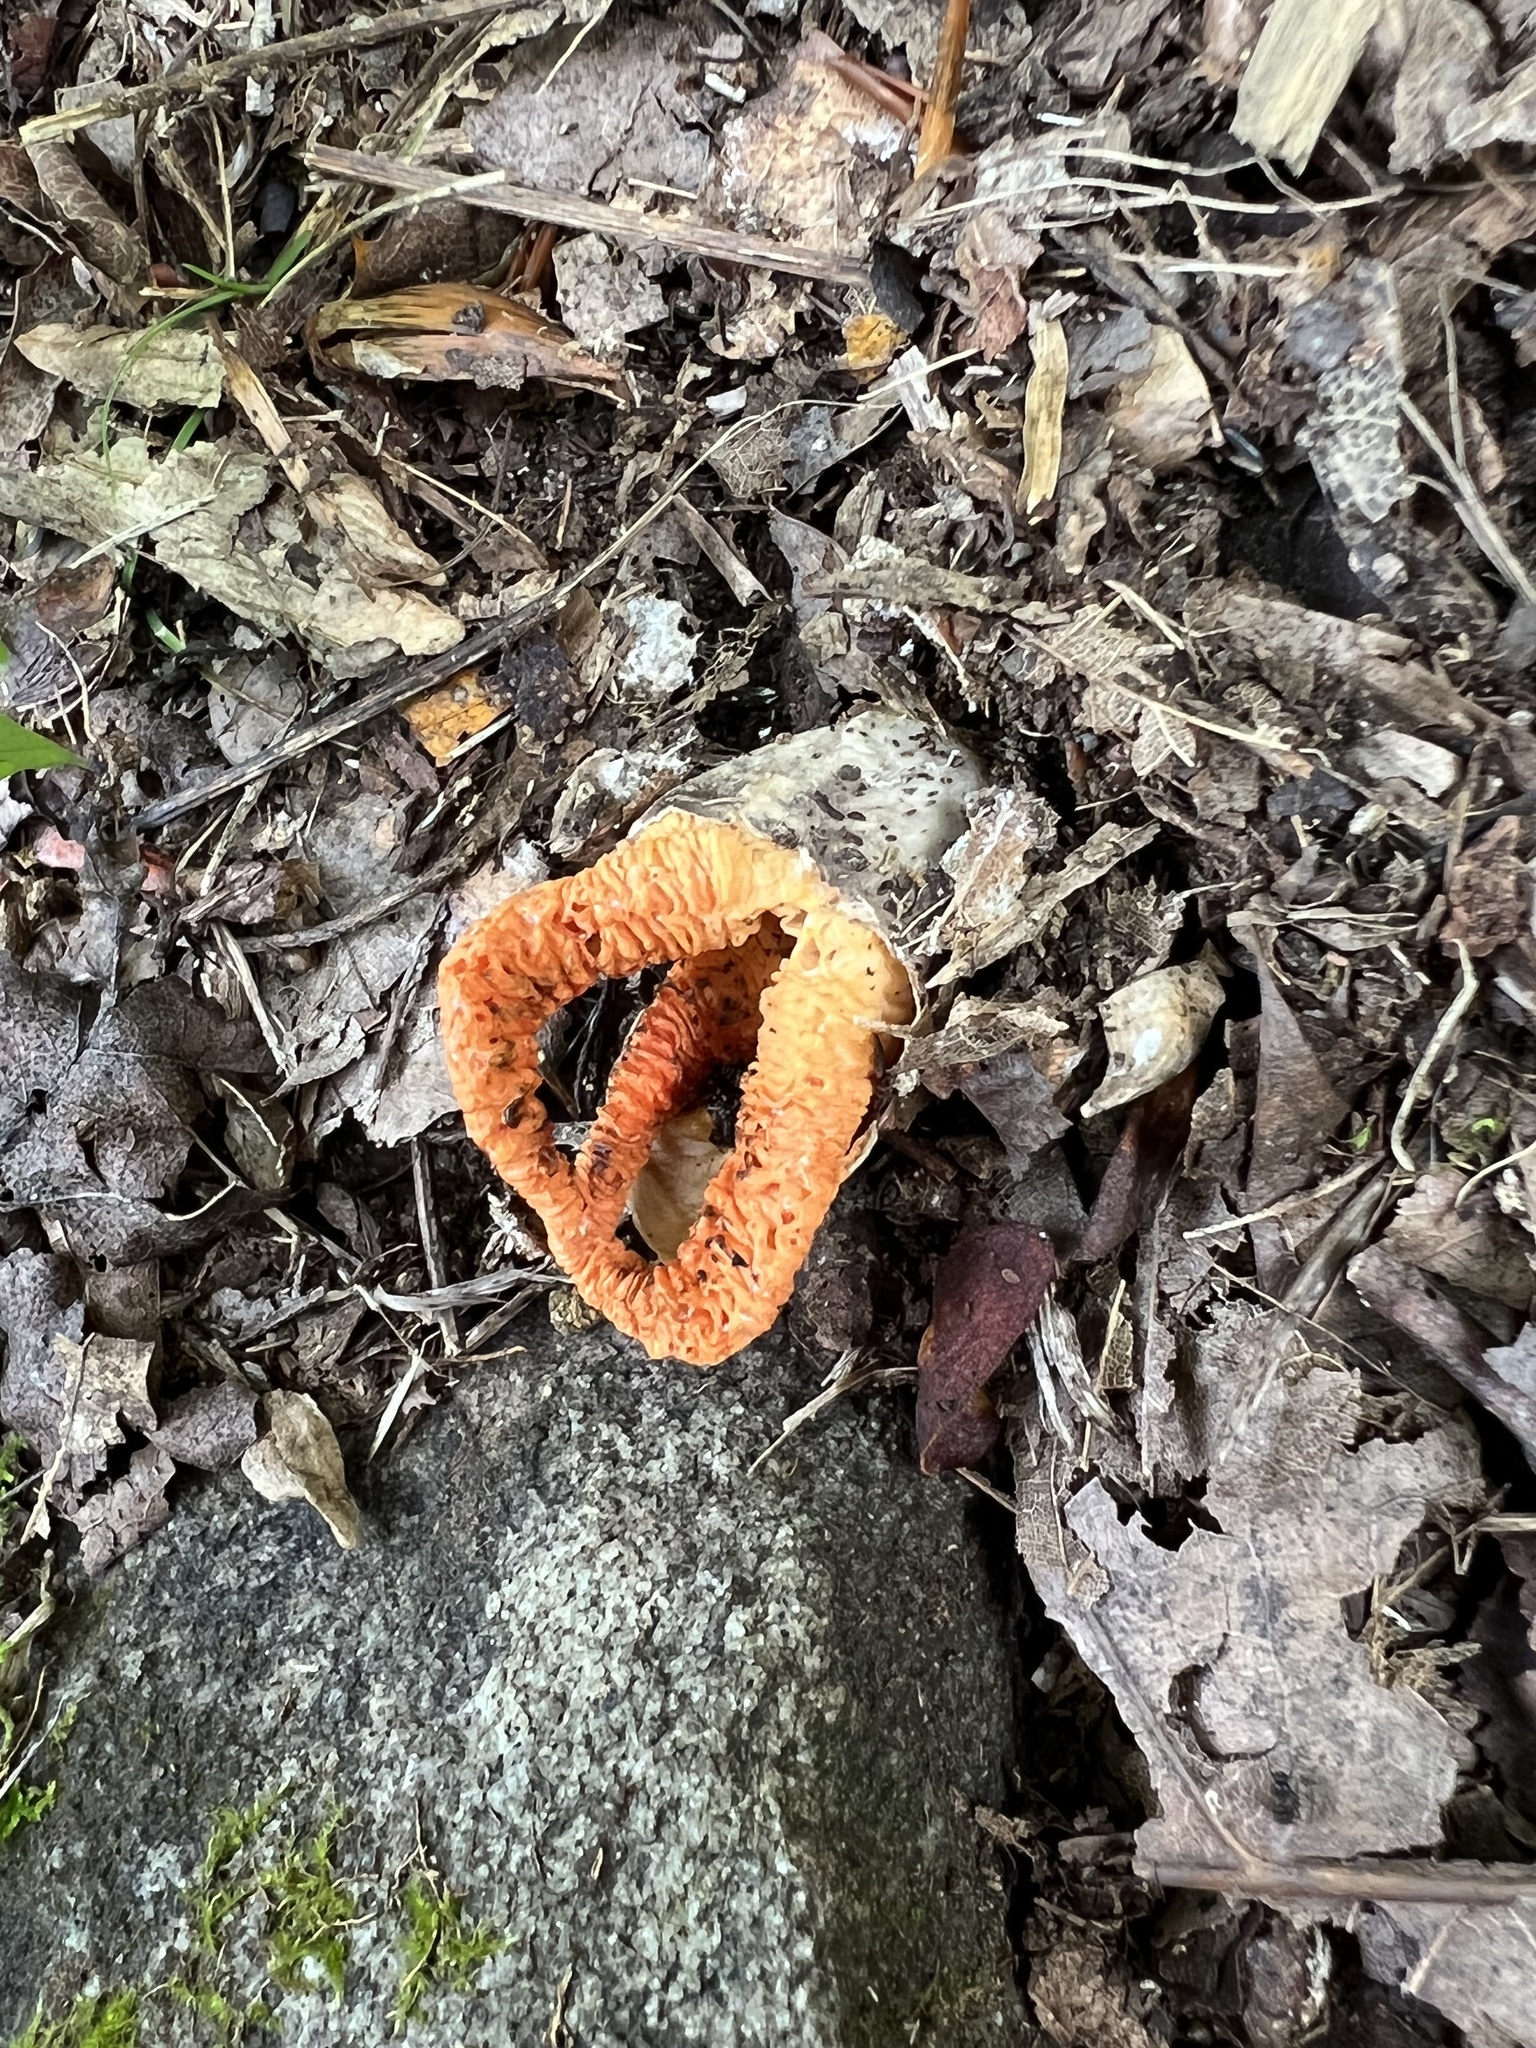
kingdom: Fungi
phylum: Basidiomycota
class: Agaricomycetes
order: Phallales
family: Phallaceae
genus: Pseudocolus
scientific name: Pseudocolus fusiformis
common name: Stinky squid
